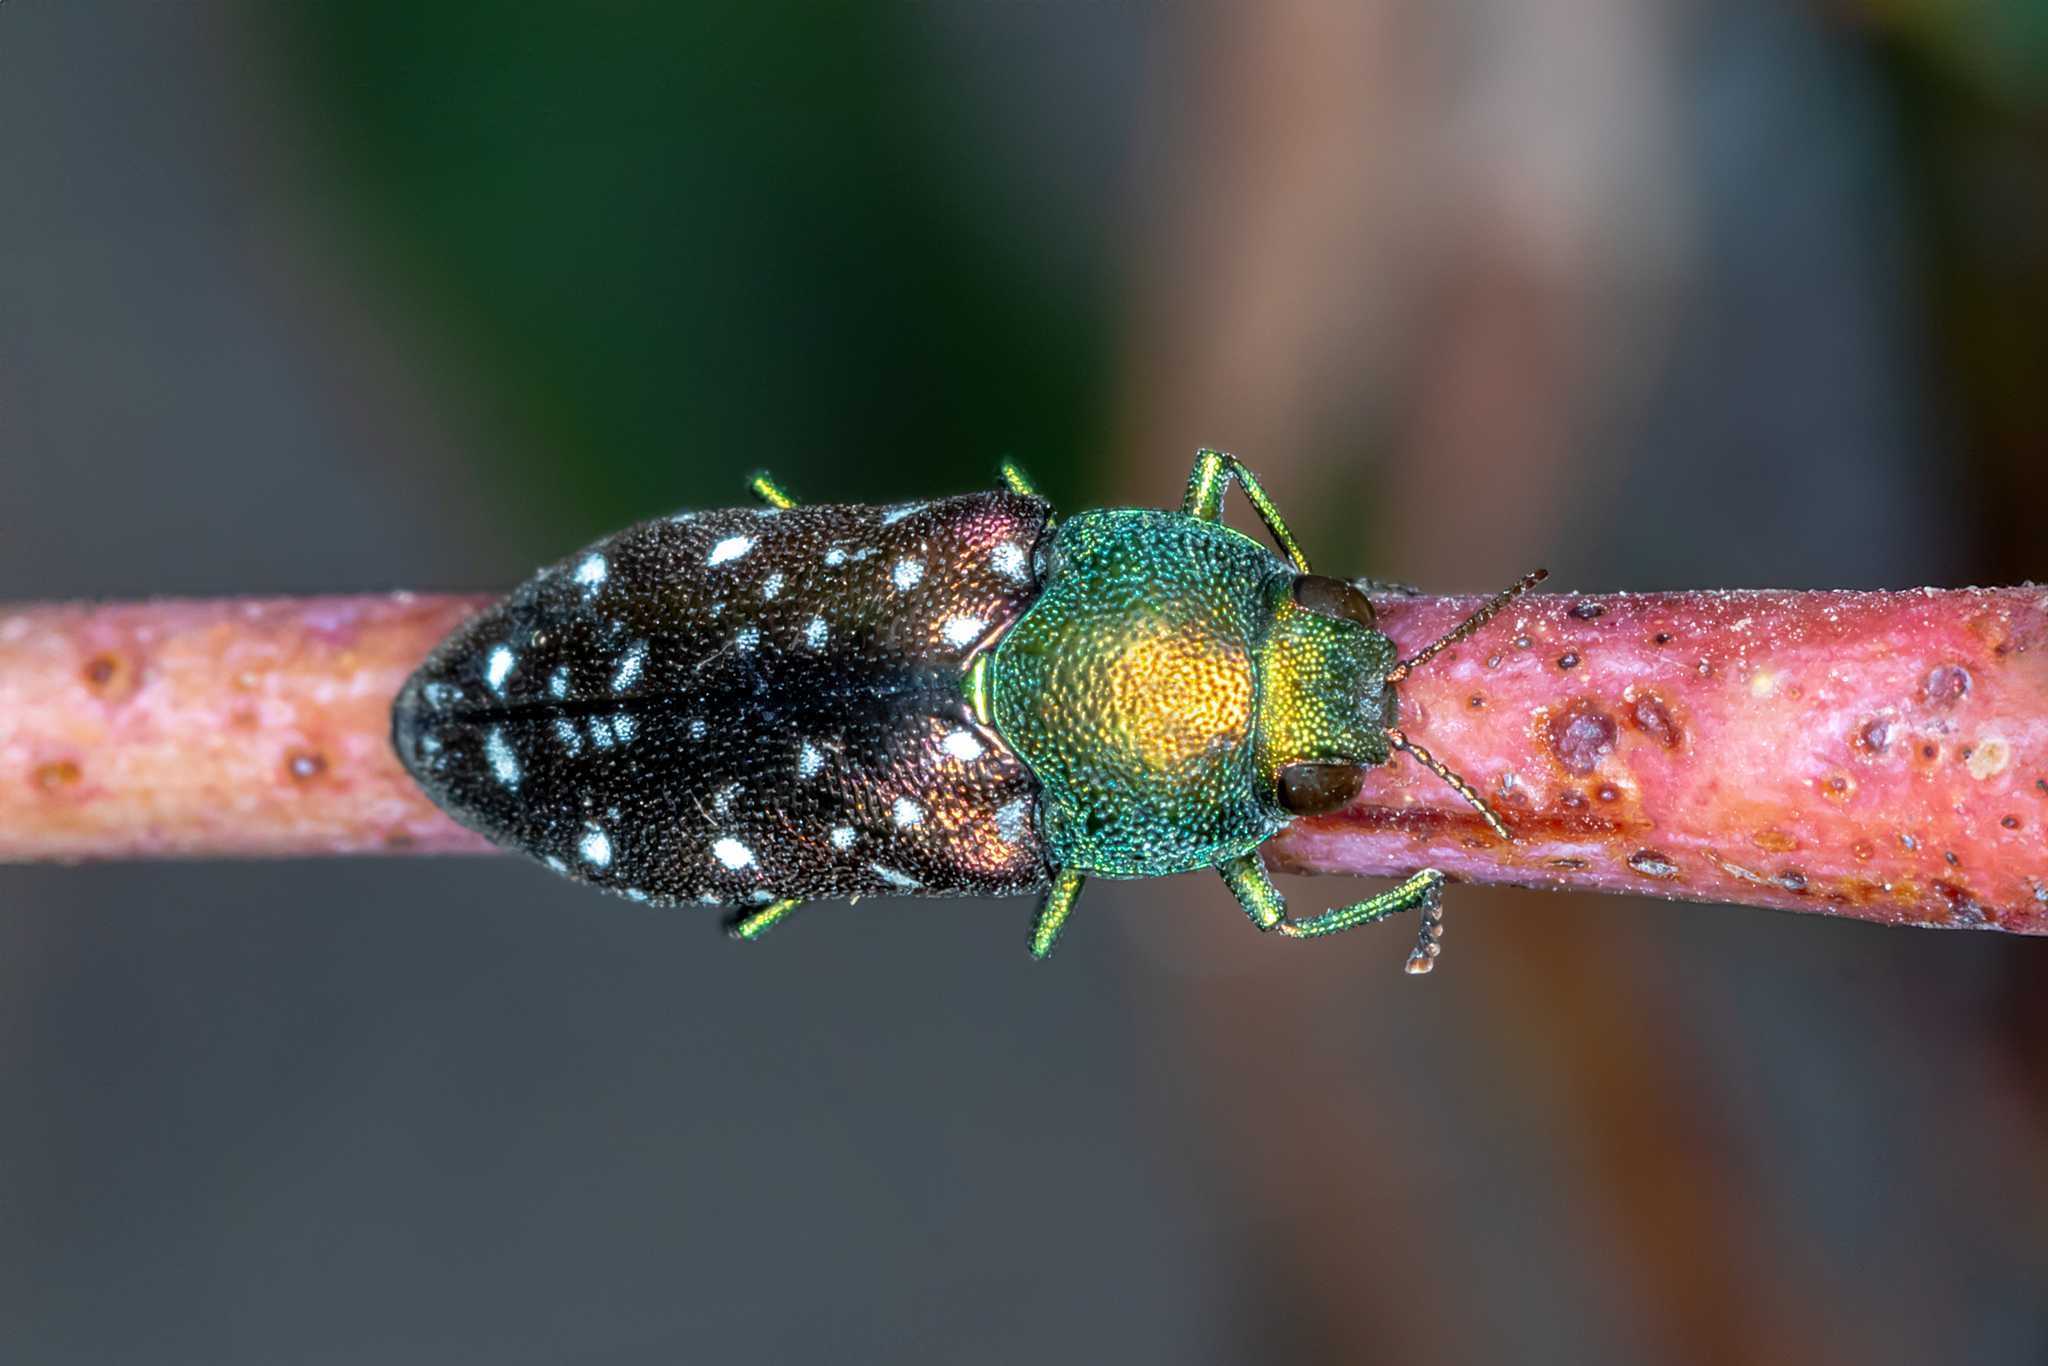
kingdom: Animalia
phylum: Arthropoda
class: Insecta
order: Coleoptera
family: Buprestidae
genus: Diphucrania
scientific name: Diphucrania leucosticta
